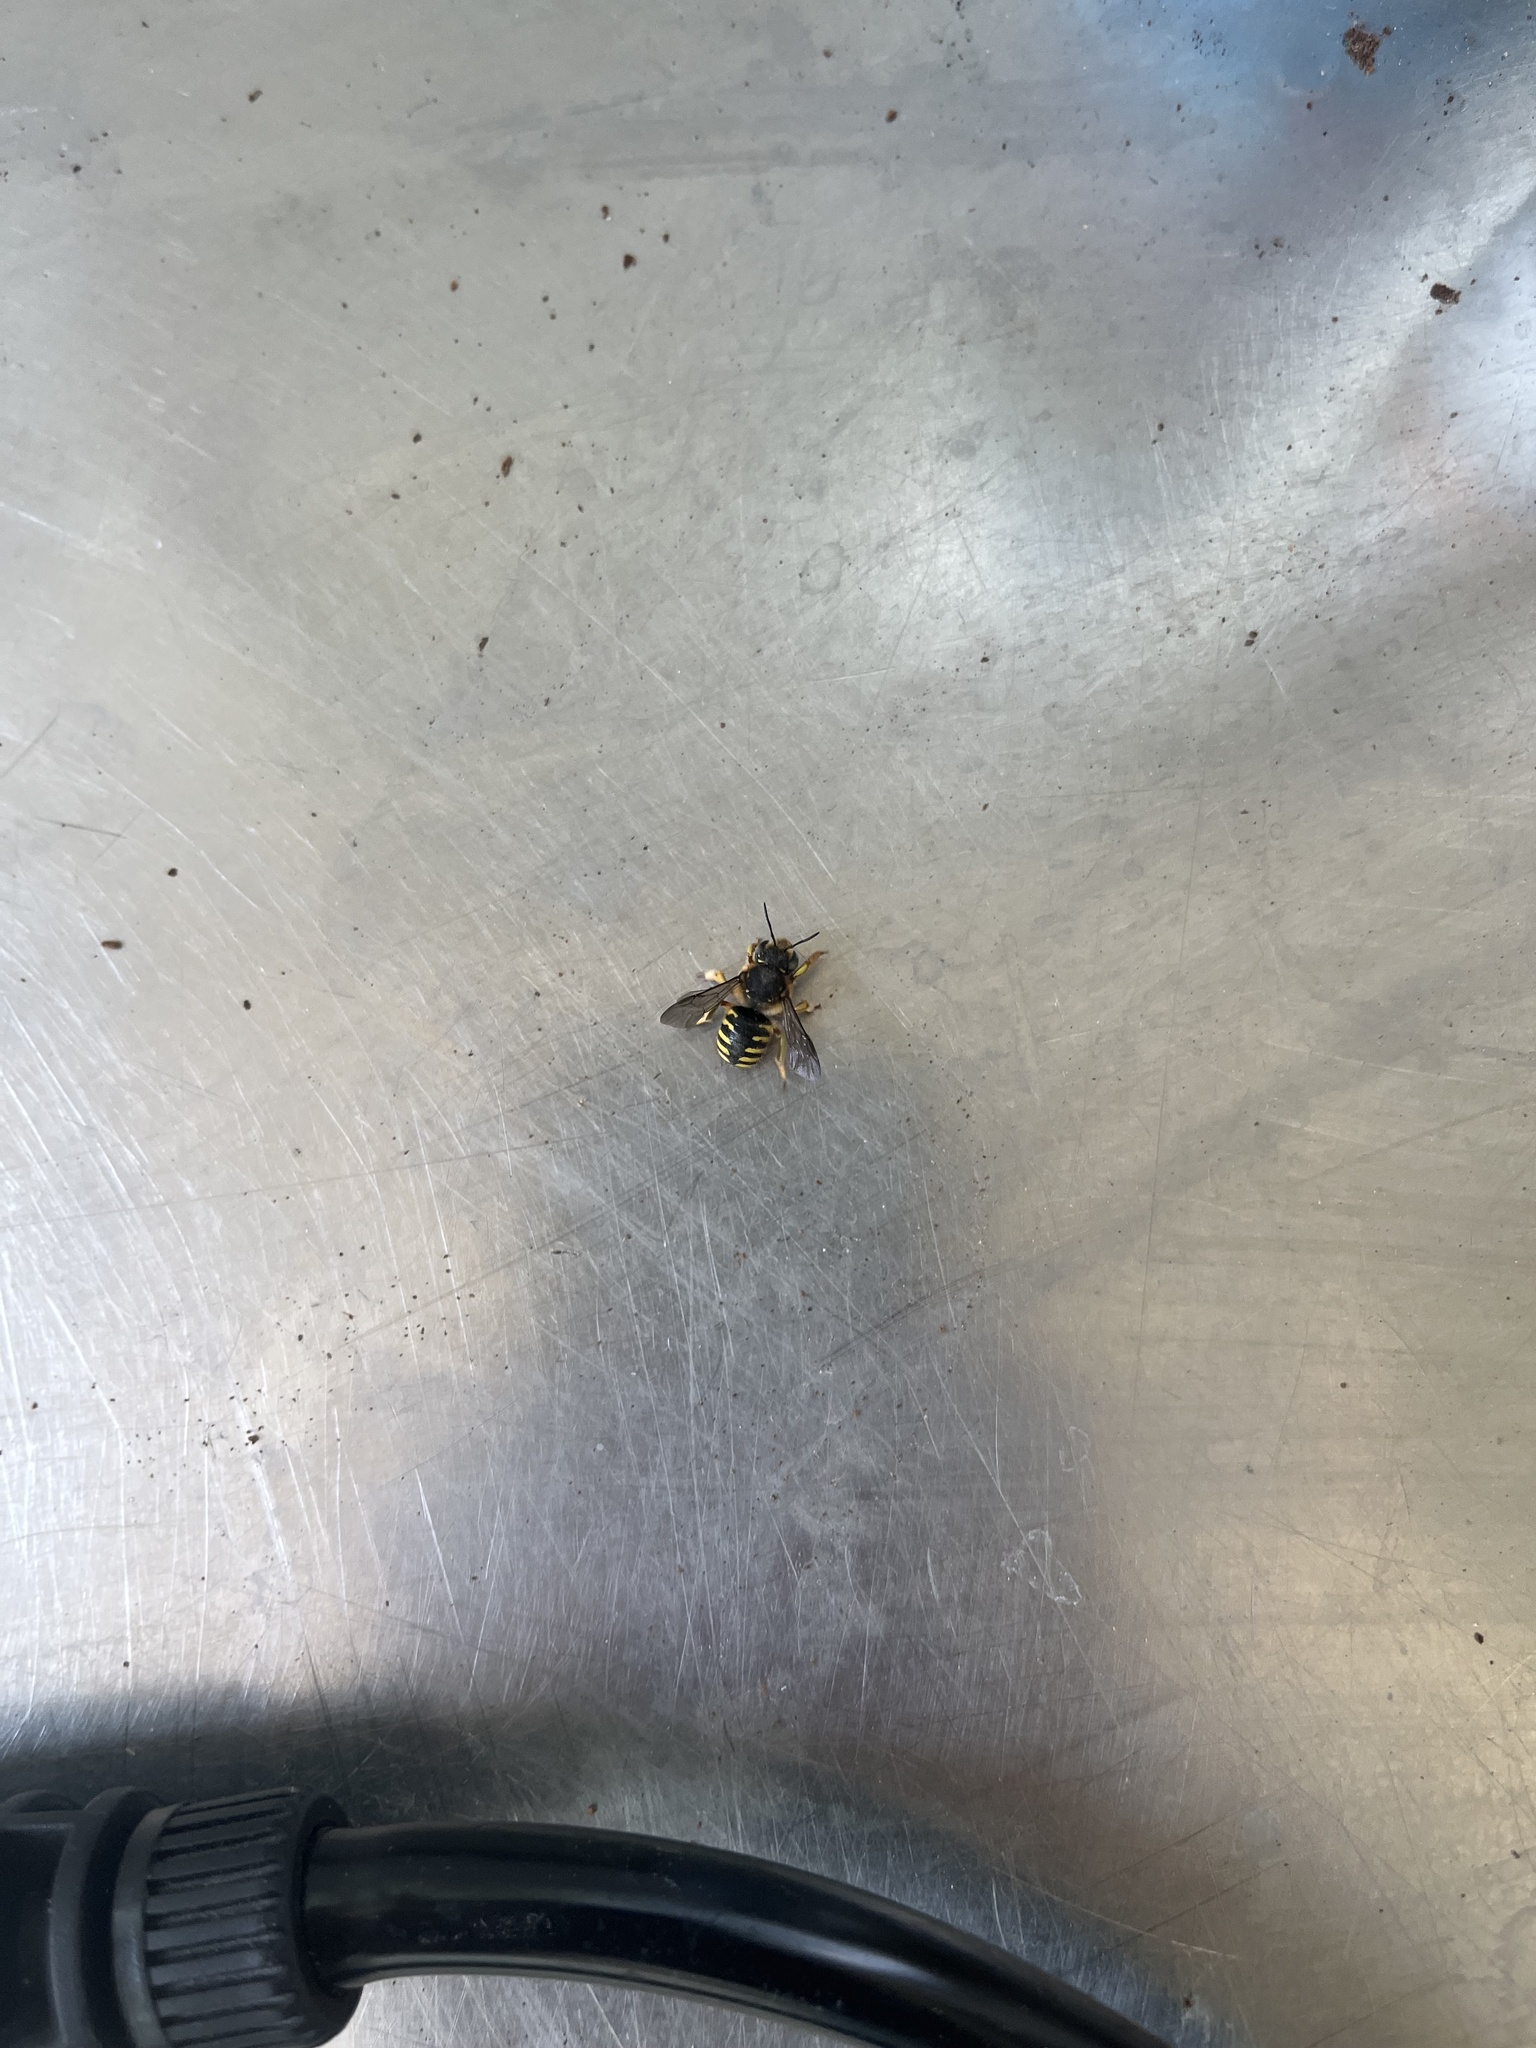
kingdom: Animalia
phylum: Arthropoda
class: Insecta
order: Hymenoptera
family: Megachilidae
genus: Anthidium
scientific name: Anthidium manicatum
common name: Wool carder bee
